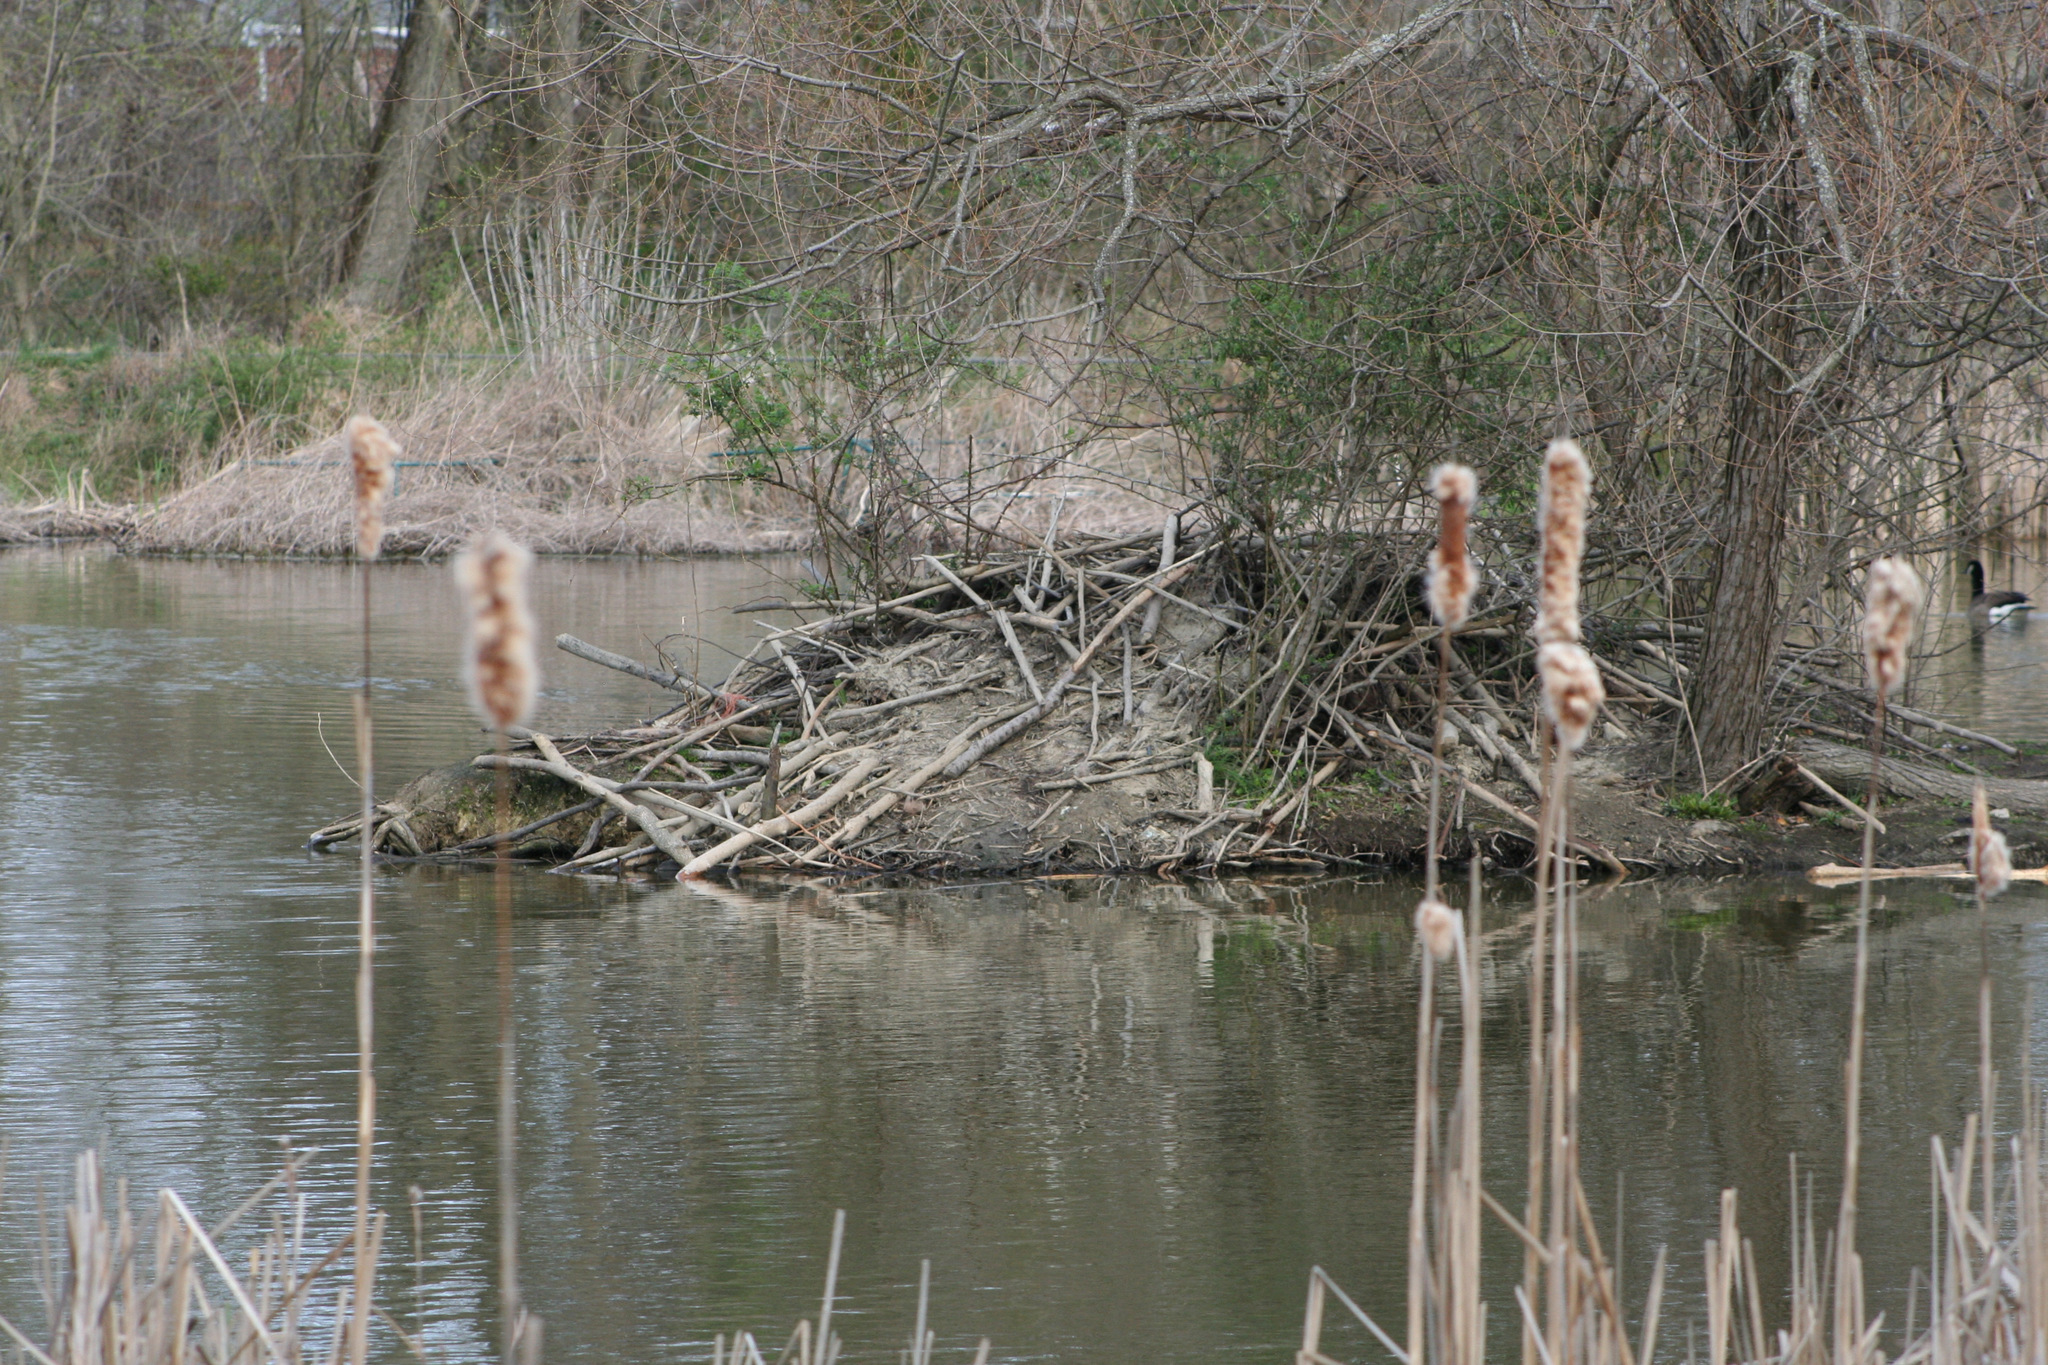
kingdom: Animalia
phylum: Chordata
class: Mammalia
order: Rodentia
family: Castoridae
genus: Castor
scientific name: Castor canadensis
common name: American beaver
